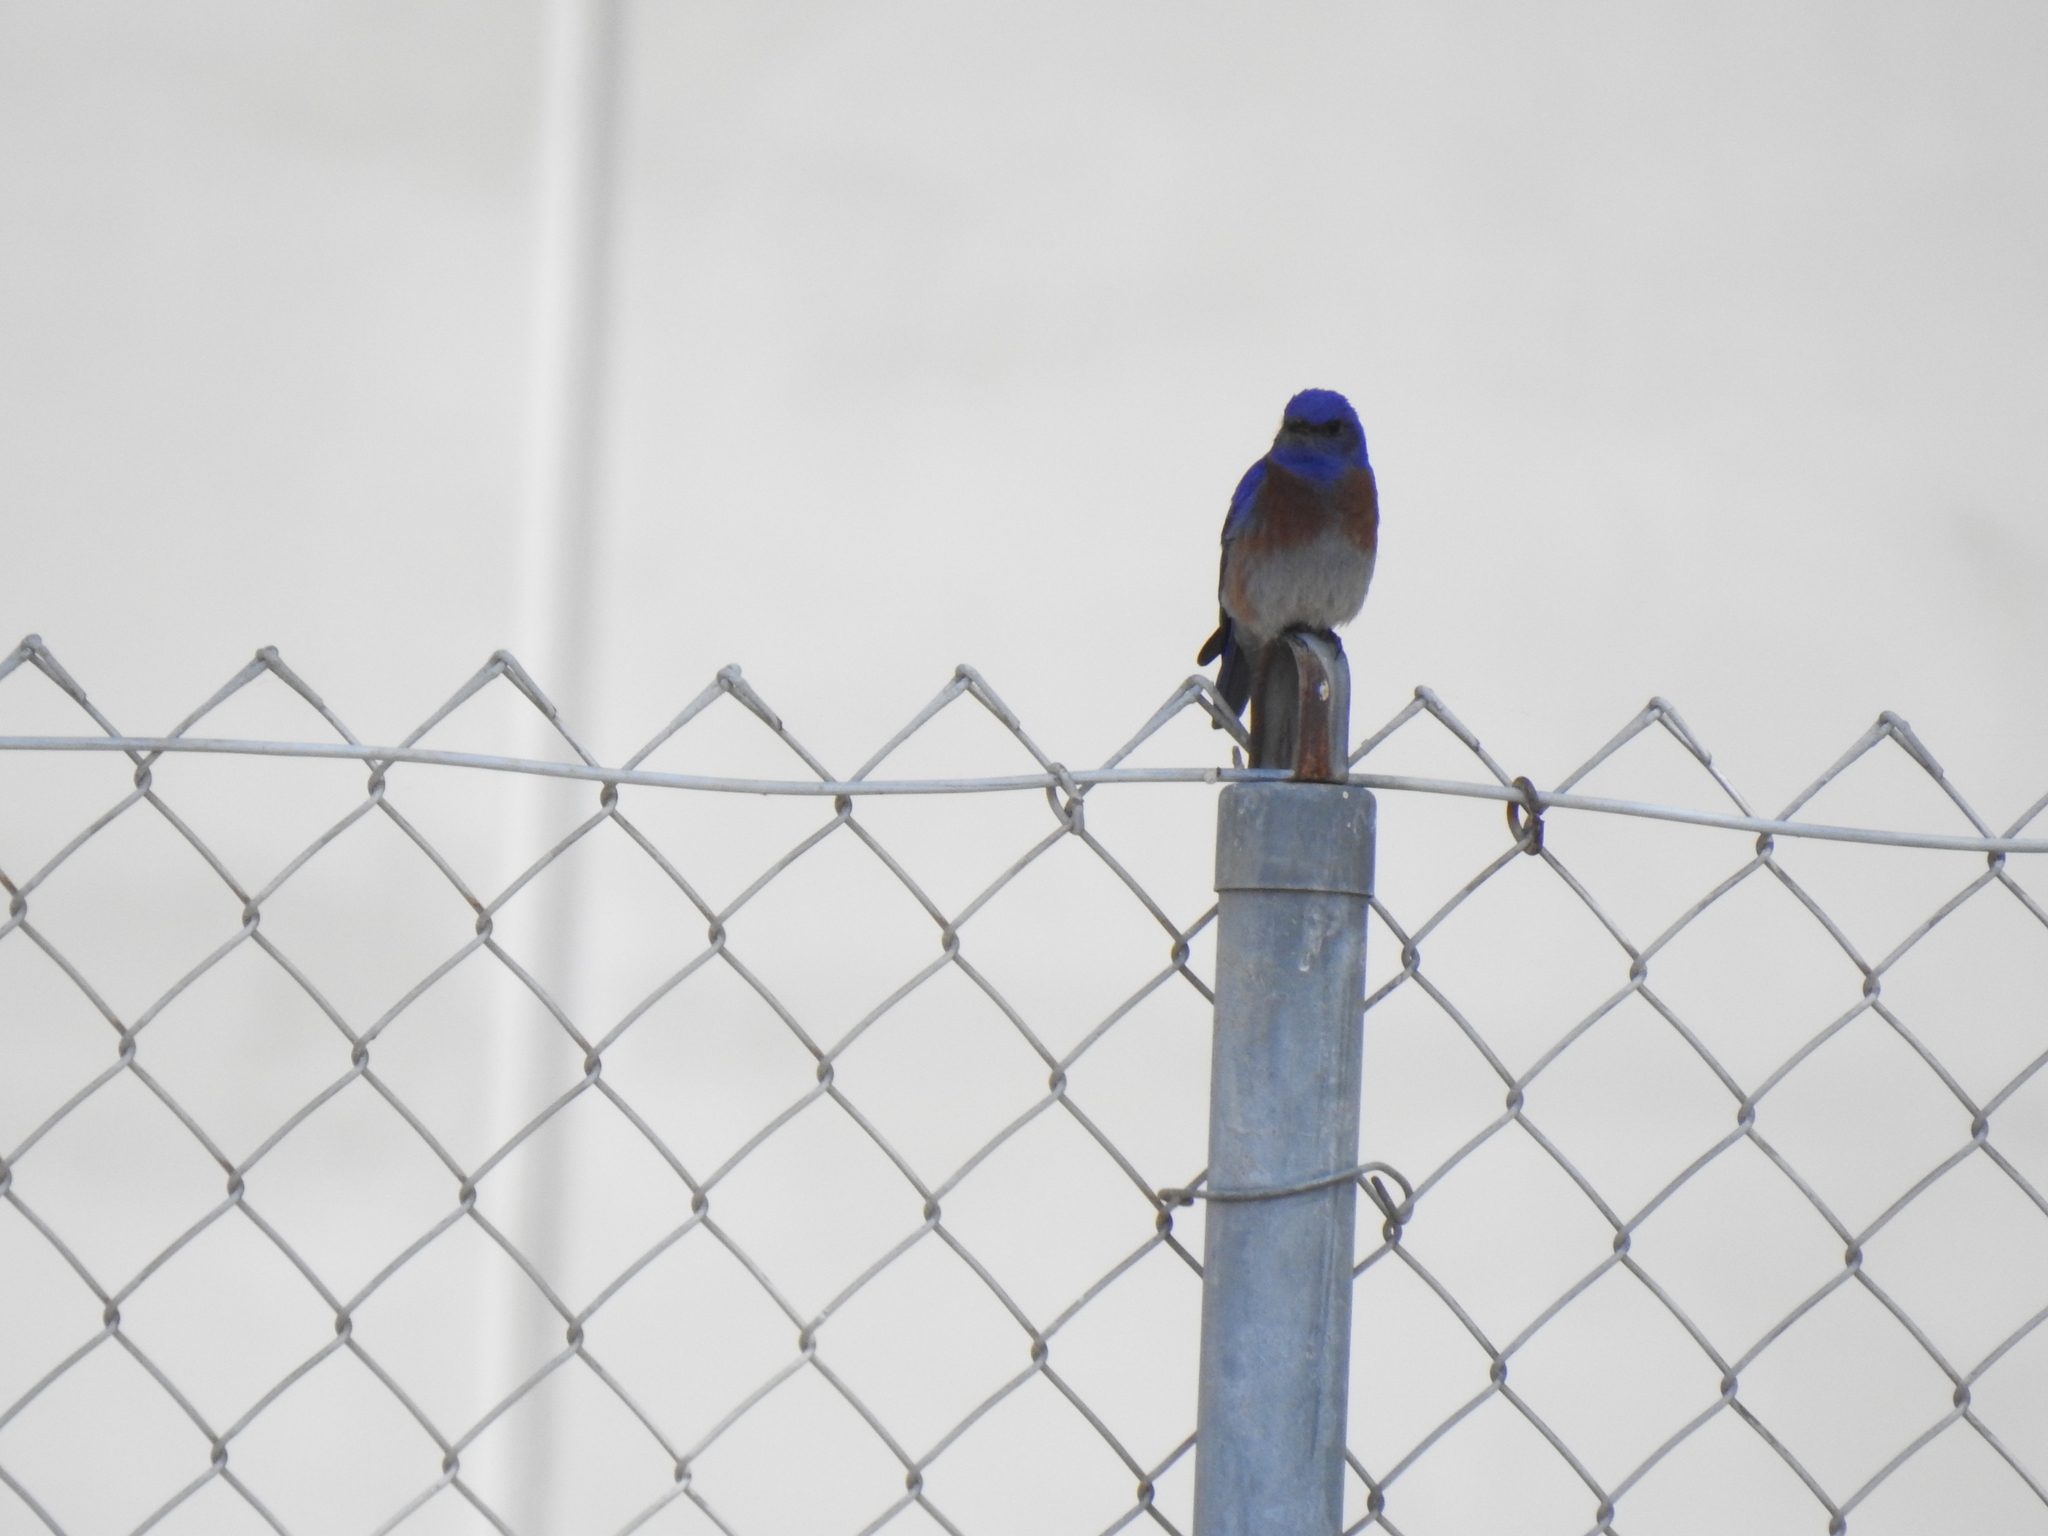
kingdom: Animalia
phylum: Chordata
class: Aves
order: Passeriformes
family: Turdidae
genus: Sialia
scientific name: Sialia mexicana
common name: Western bluebird
